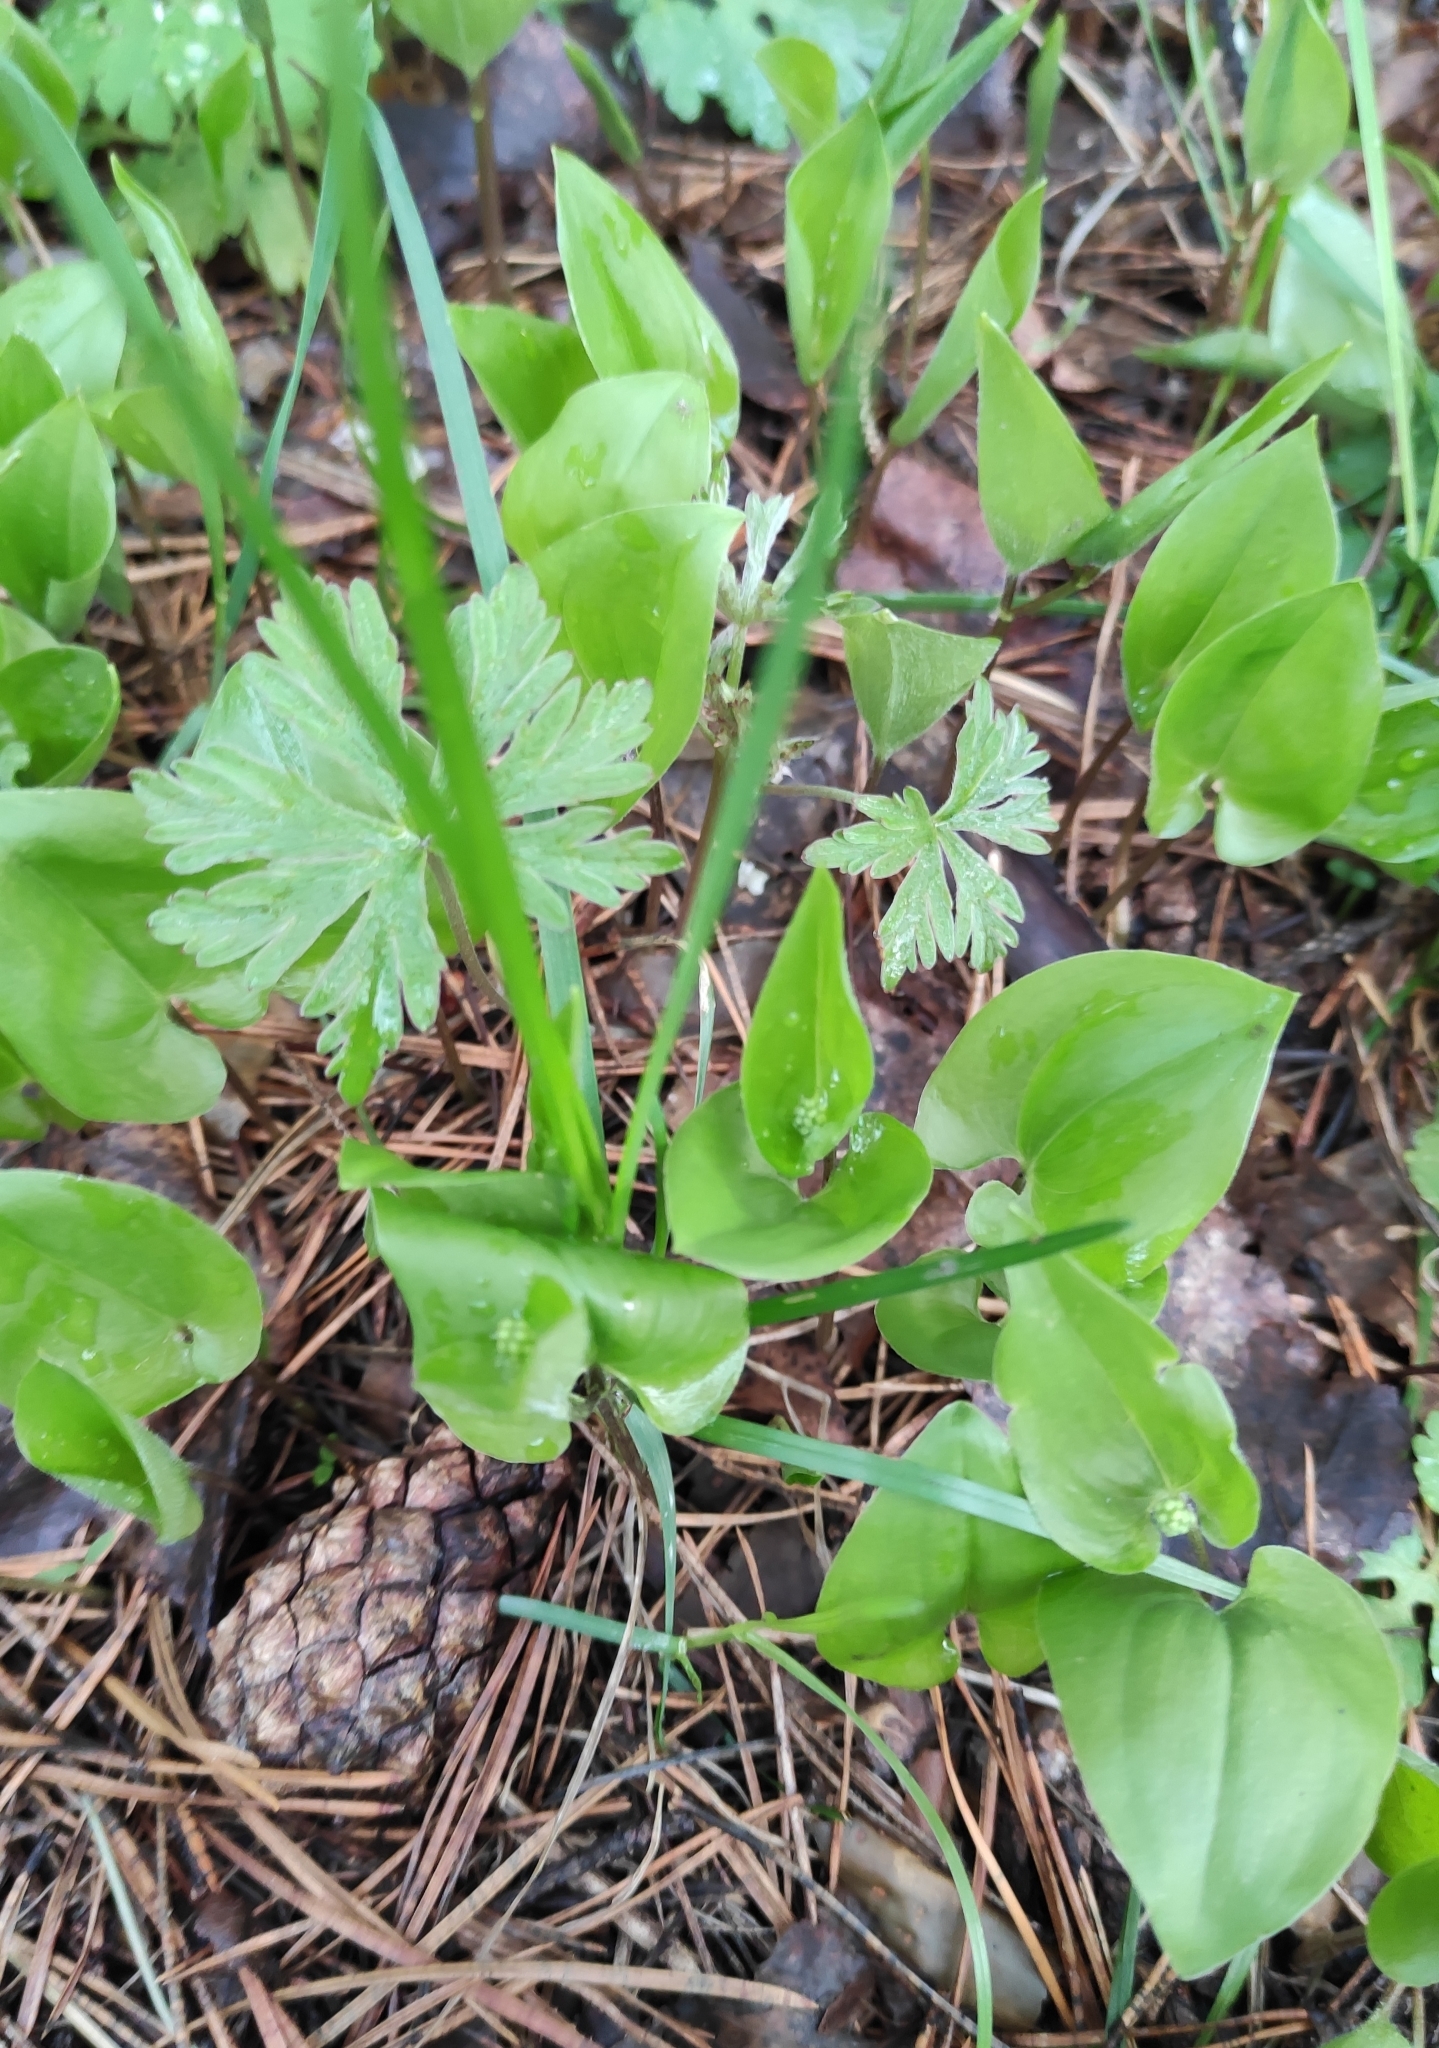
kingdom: Plantae
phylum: Tracheophyta
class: Liliopsida
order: Asparagales
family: Asparagaceae
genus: Maianthemum
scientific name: Maianthemum bifolium
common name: May lily
